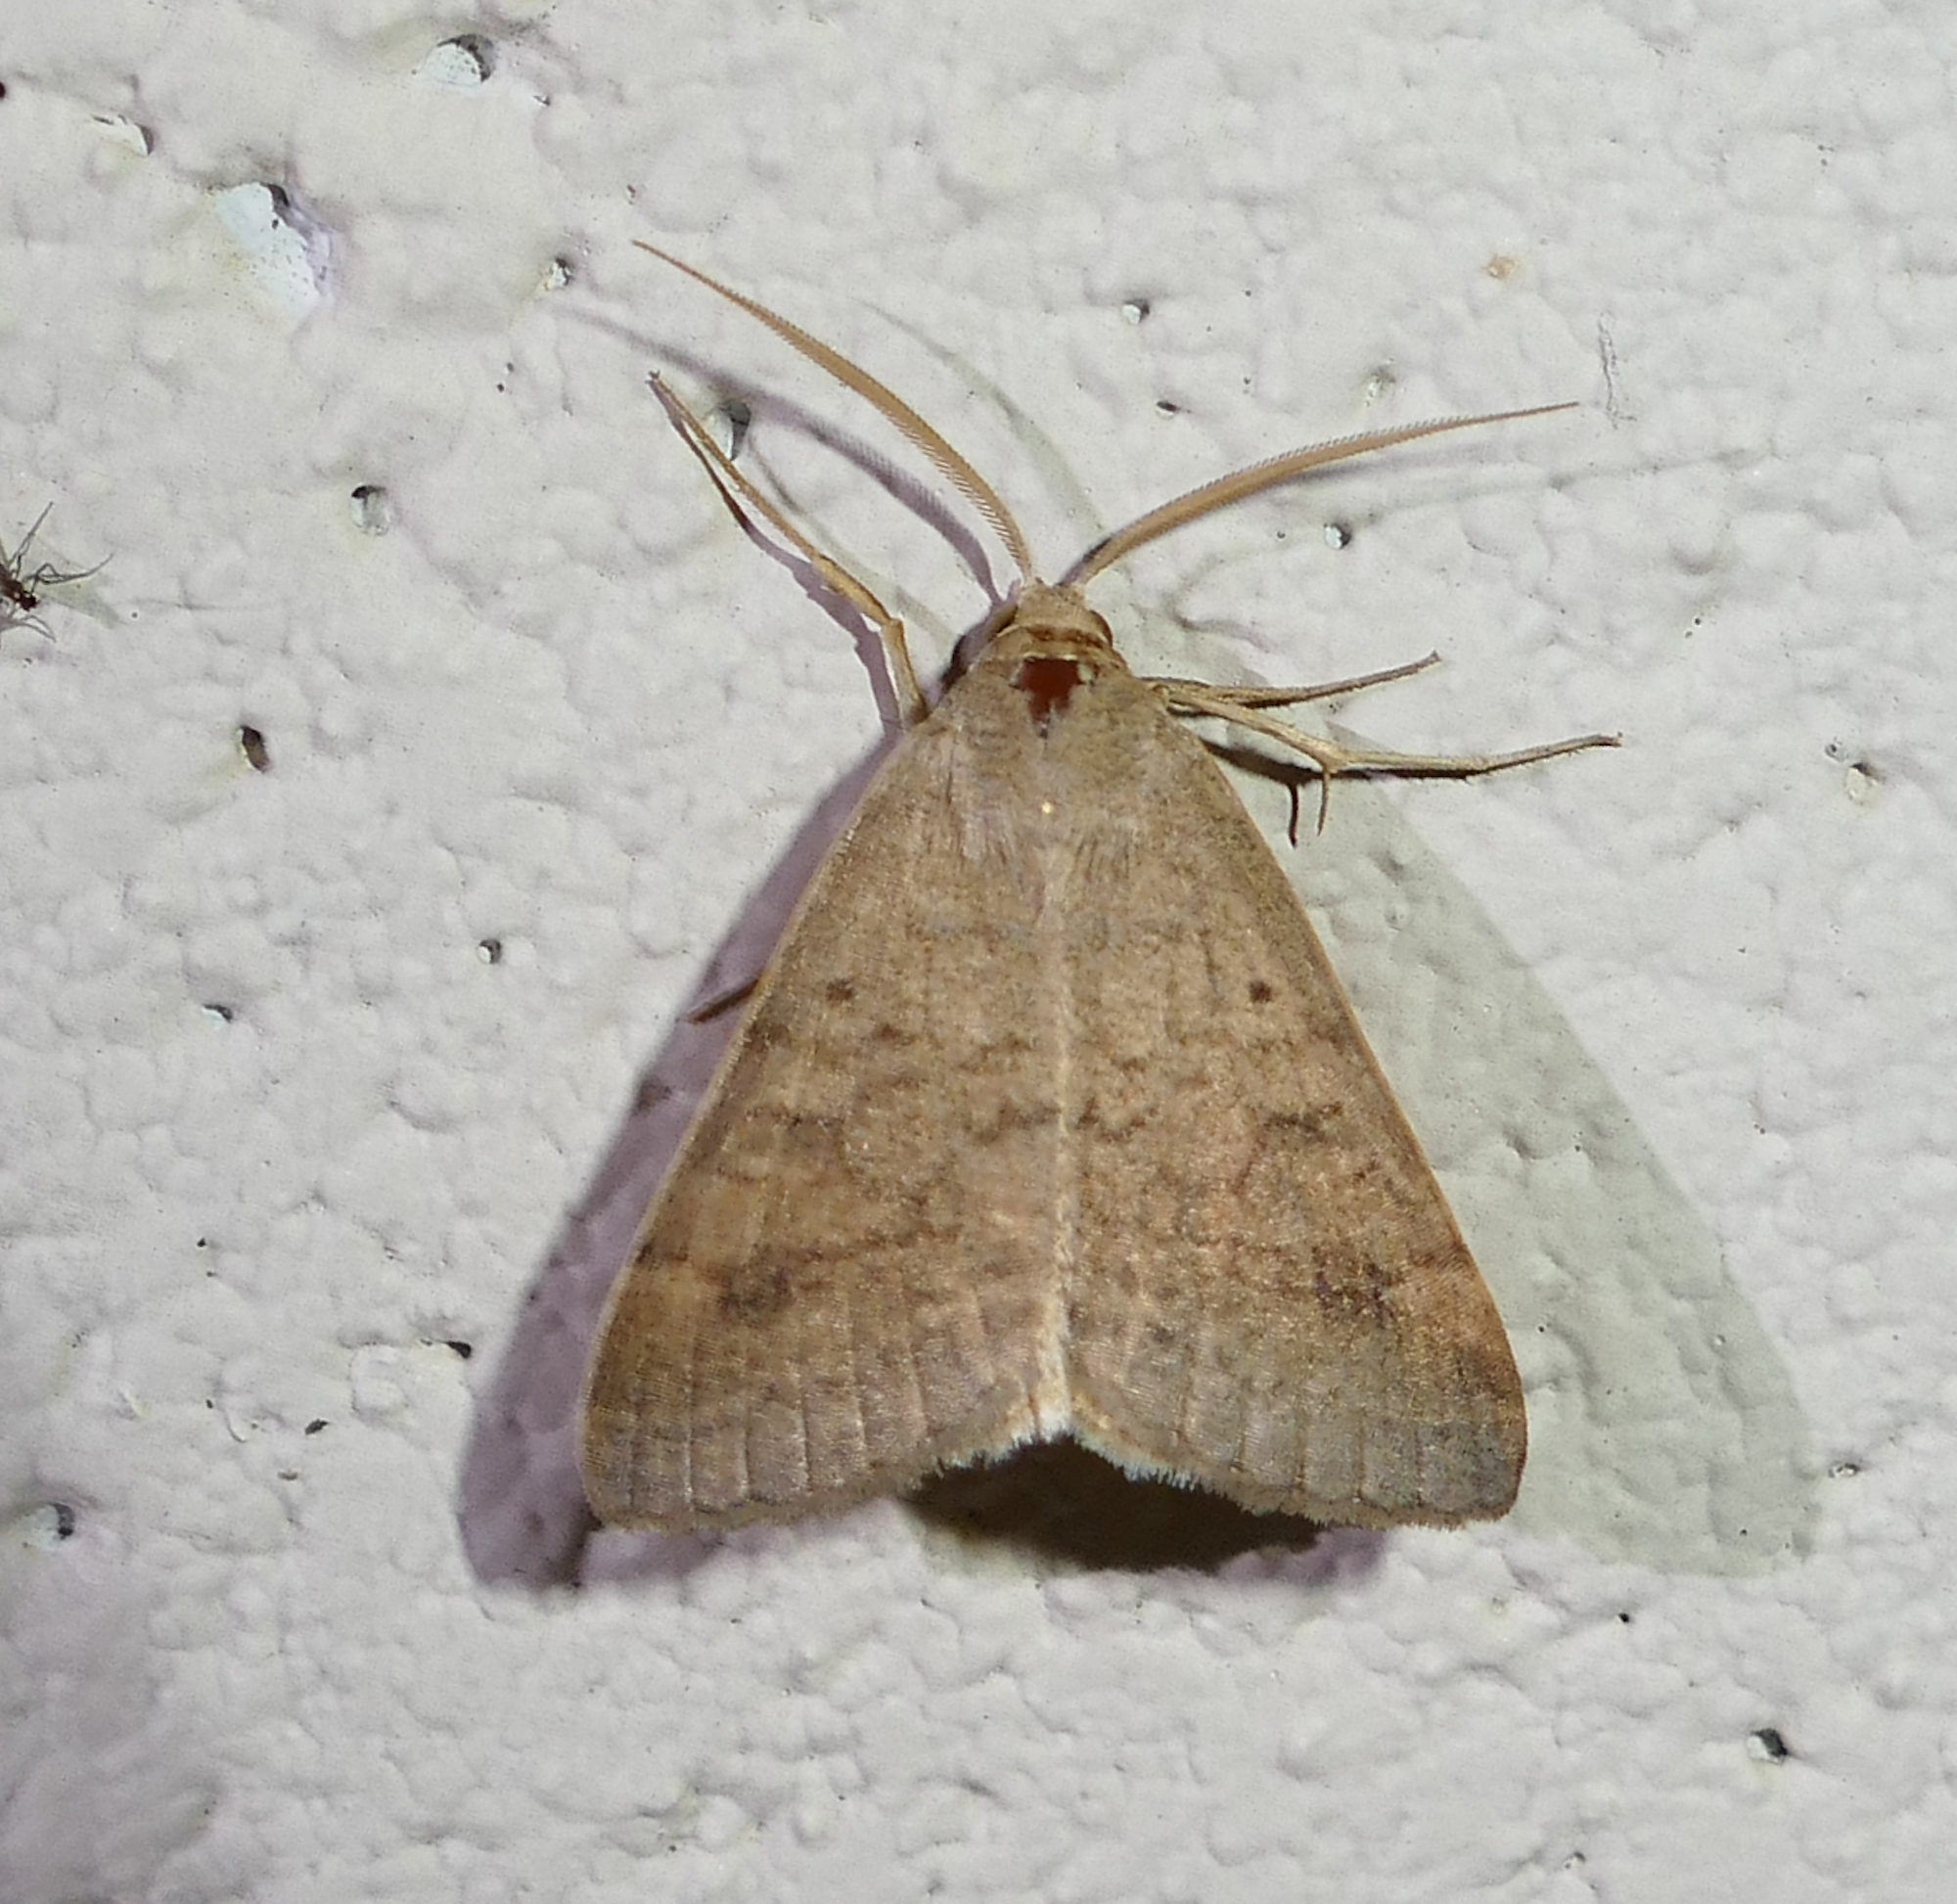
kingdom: Animalia
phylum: Arthropoda
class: Insecta
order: Lepidoptera
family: Erebidae
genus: Caenurgia
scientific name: Caenurgia chloropha
